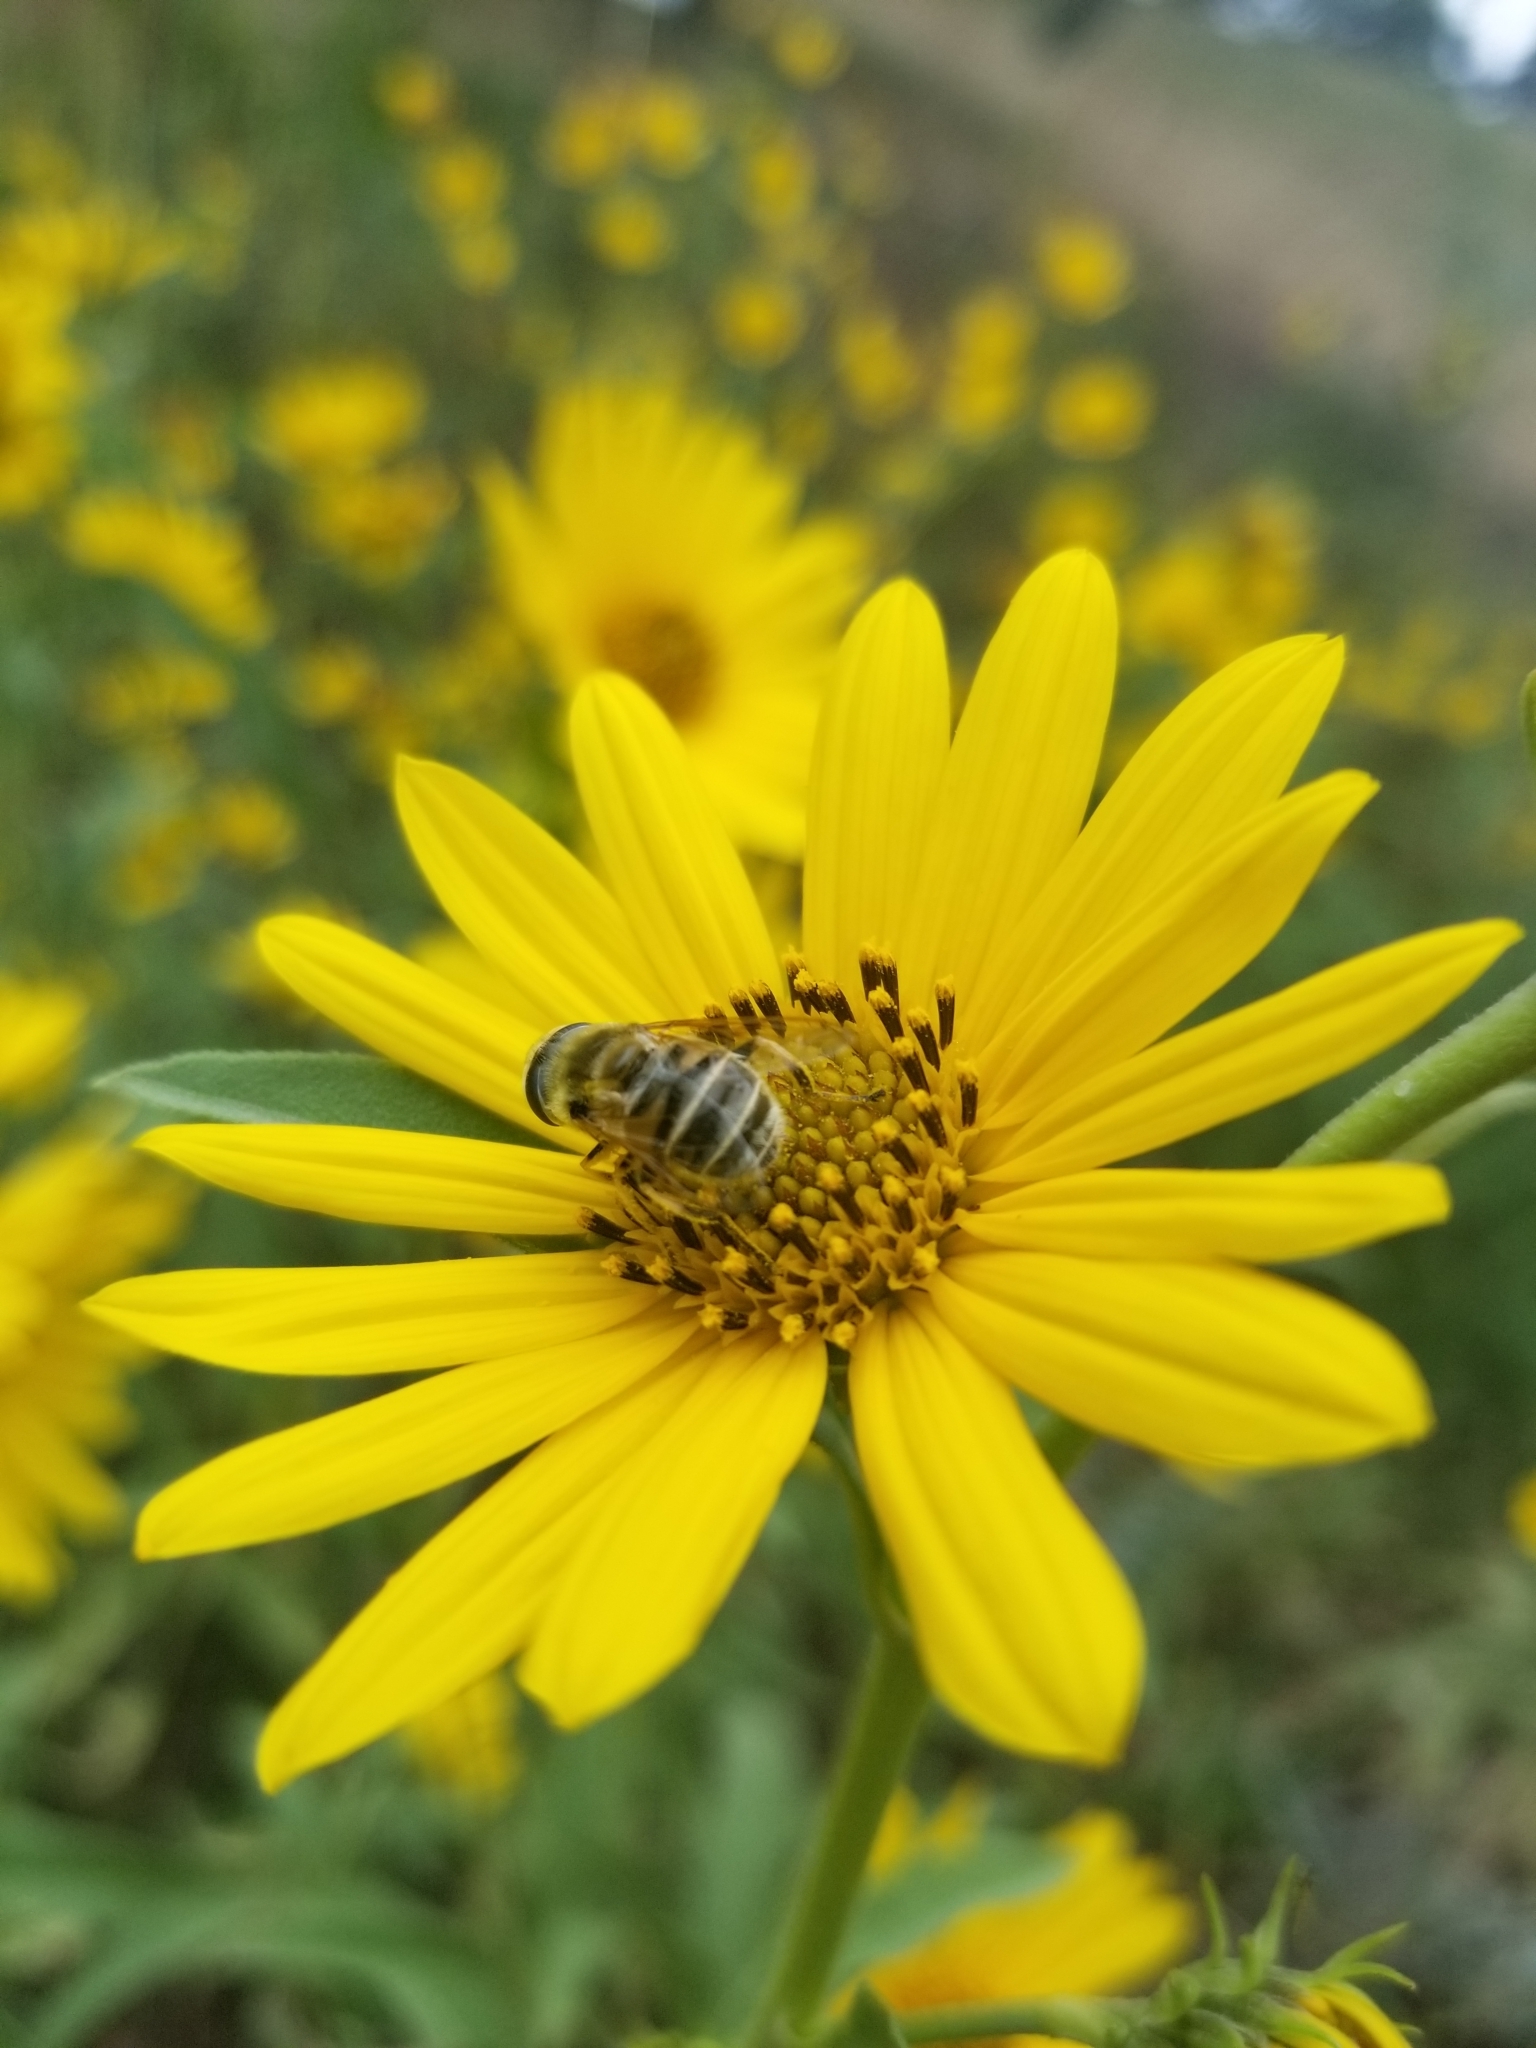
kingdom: Animalia
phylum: Arthropoda
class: Insecta
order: Diptera
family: Syrphidae
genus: Eristalis
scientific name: Eristalis stipator
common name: Yellow-shouldered drone fly
